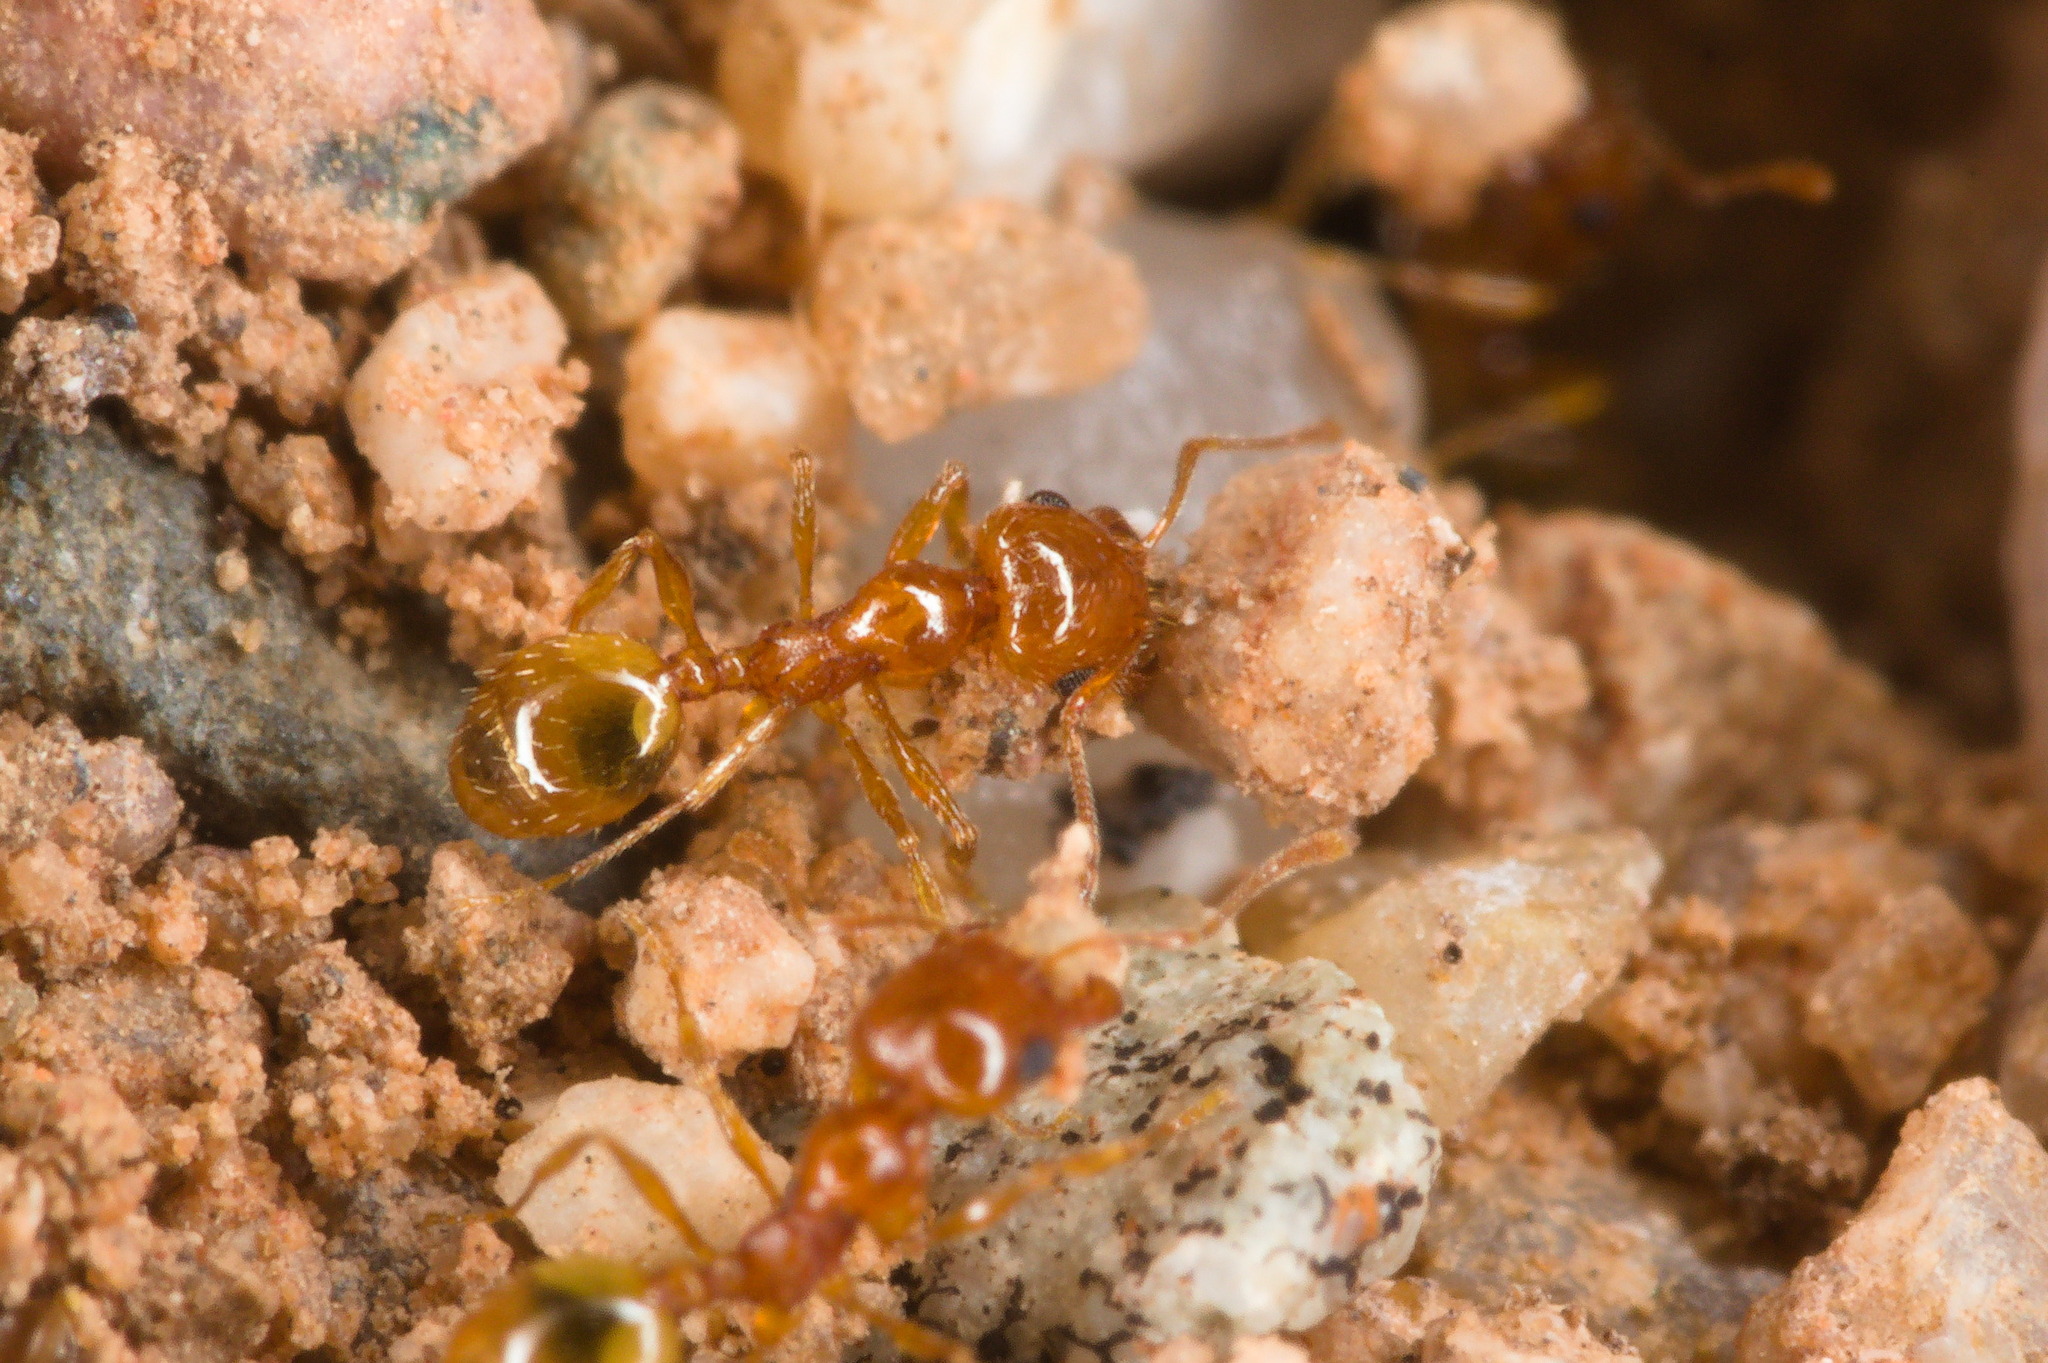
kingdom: Animalia
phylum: Arthropoda
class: Insecta
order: Hymenoptera
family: Formicidae
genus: Pheidole
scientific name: Pheidole gilvescens
